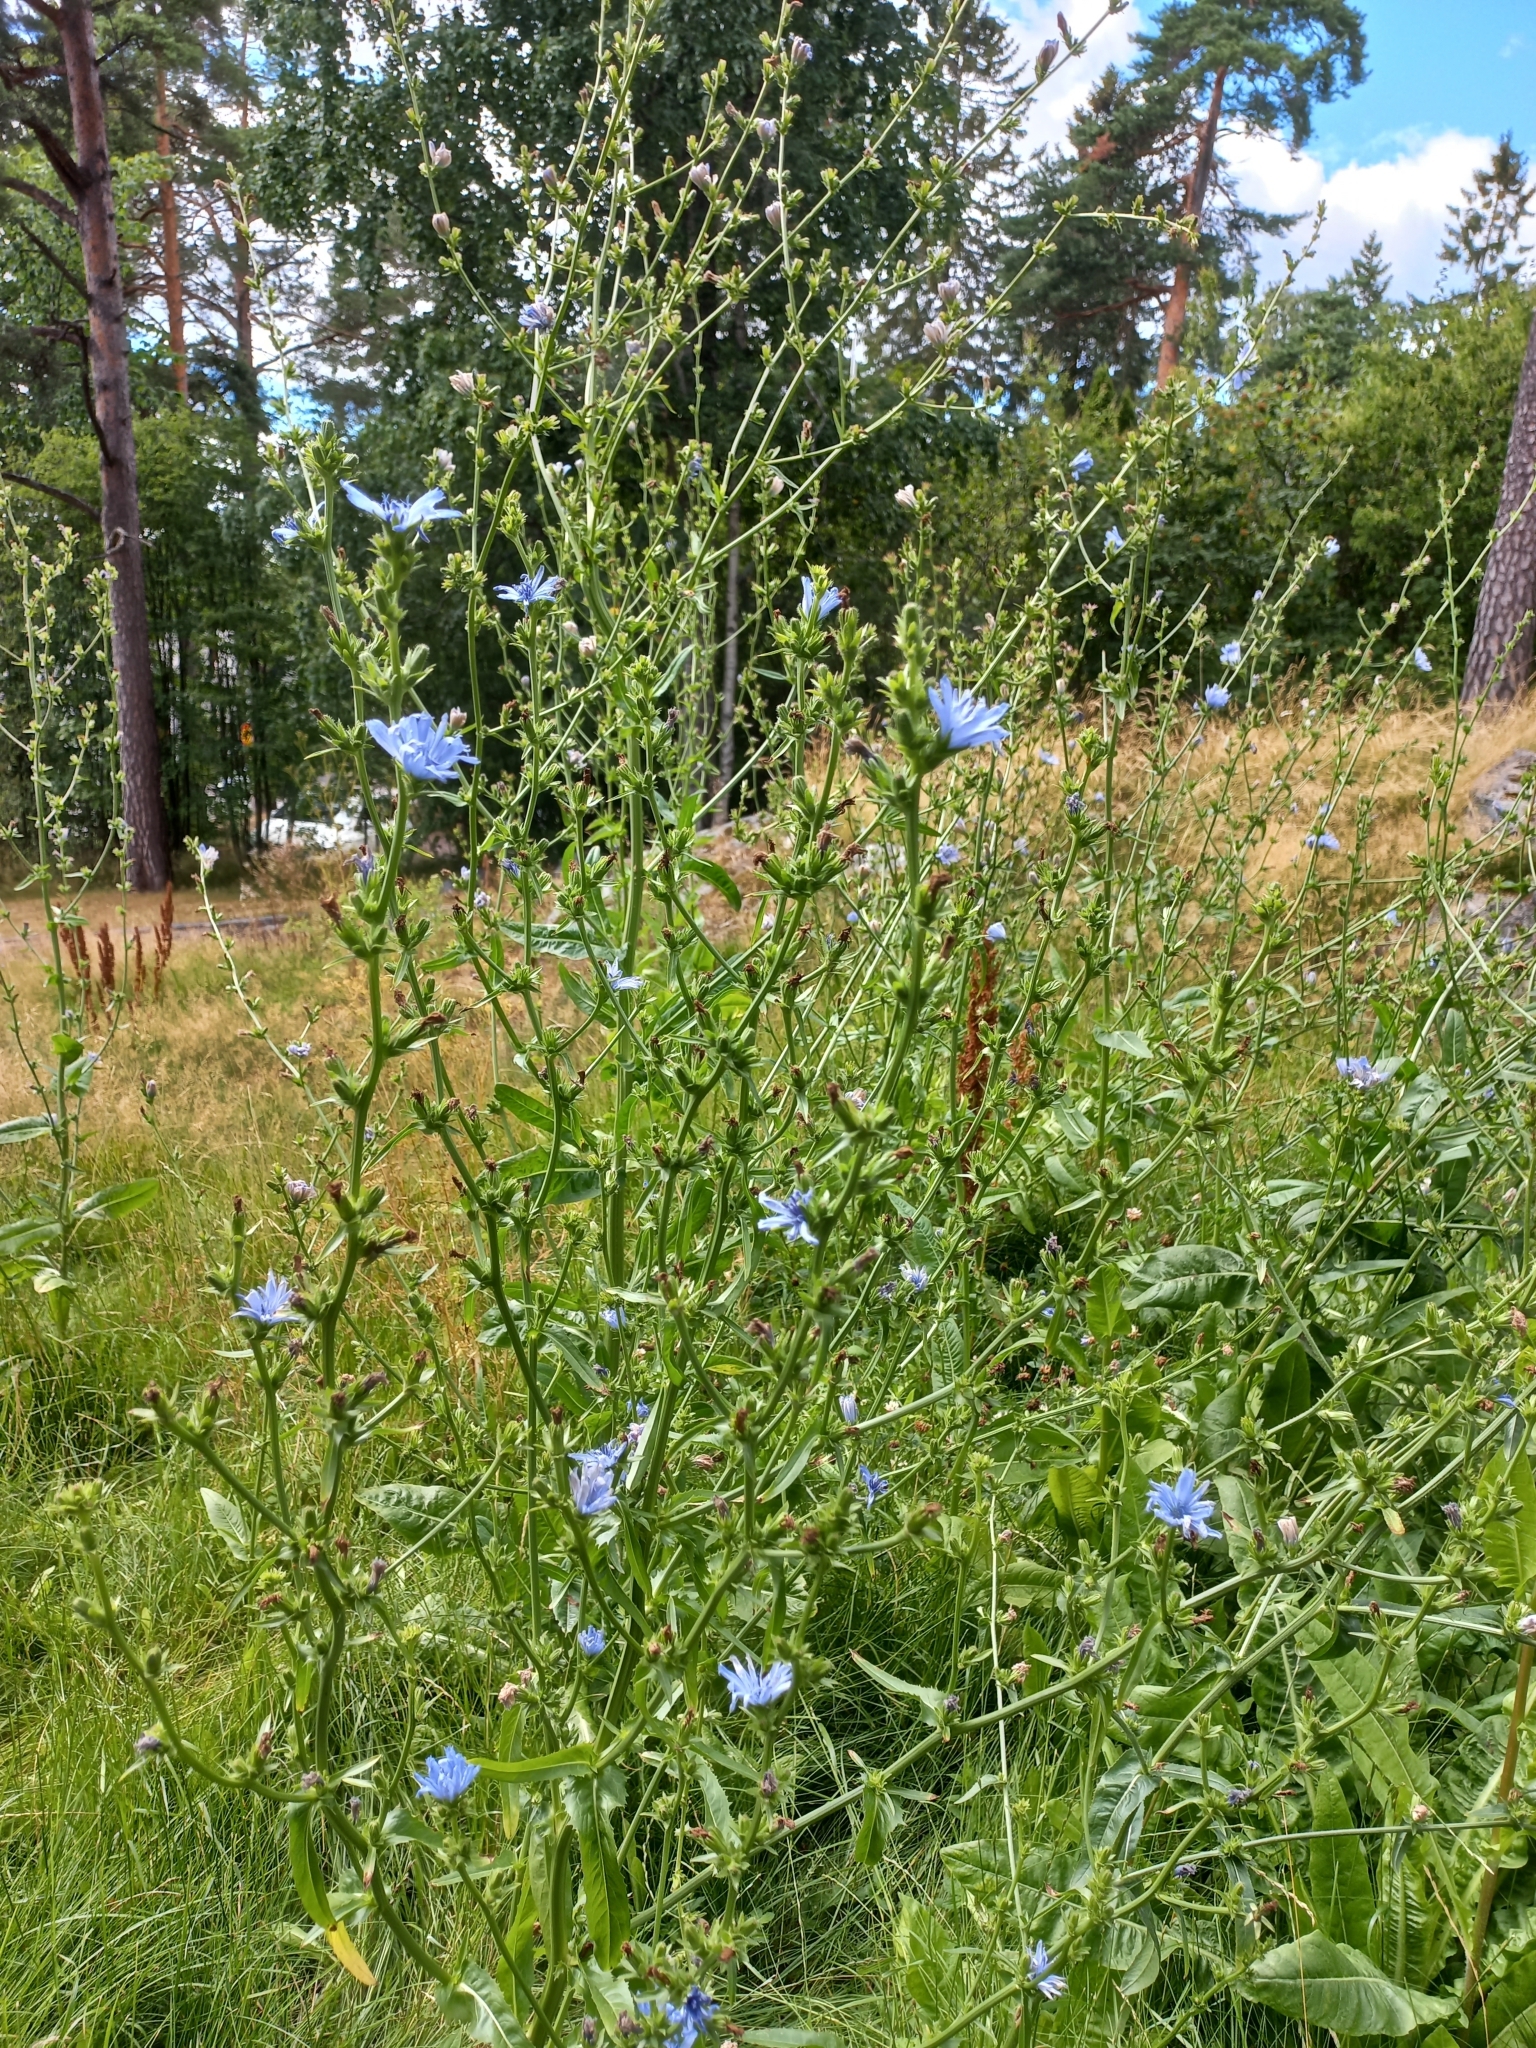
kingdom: Plantae
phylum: Tracheophyta
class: Magnoliopsida
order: Asterales
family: Asteraceae
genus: Cichorium
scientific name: Cichorium intybus
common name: Chicory
